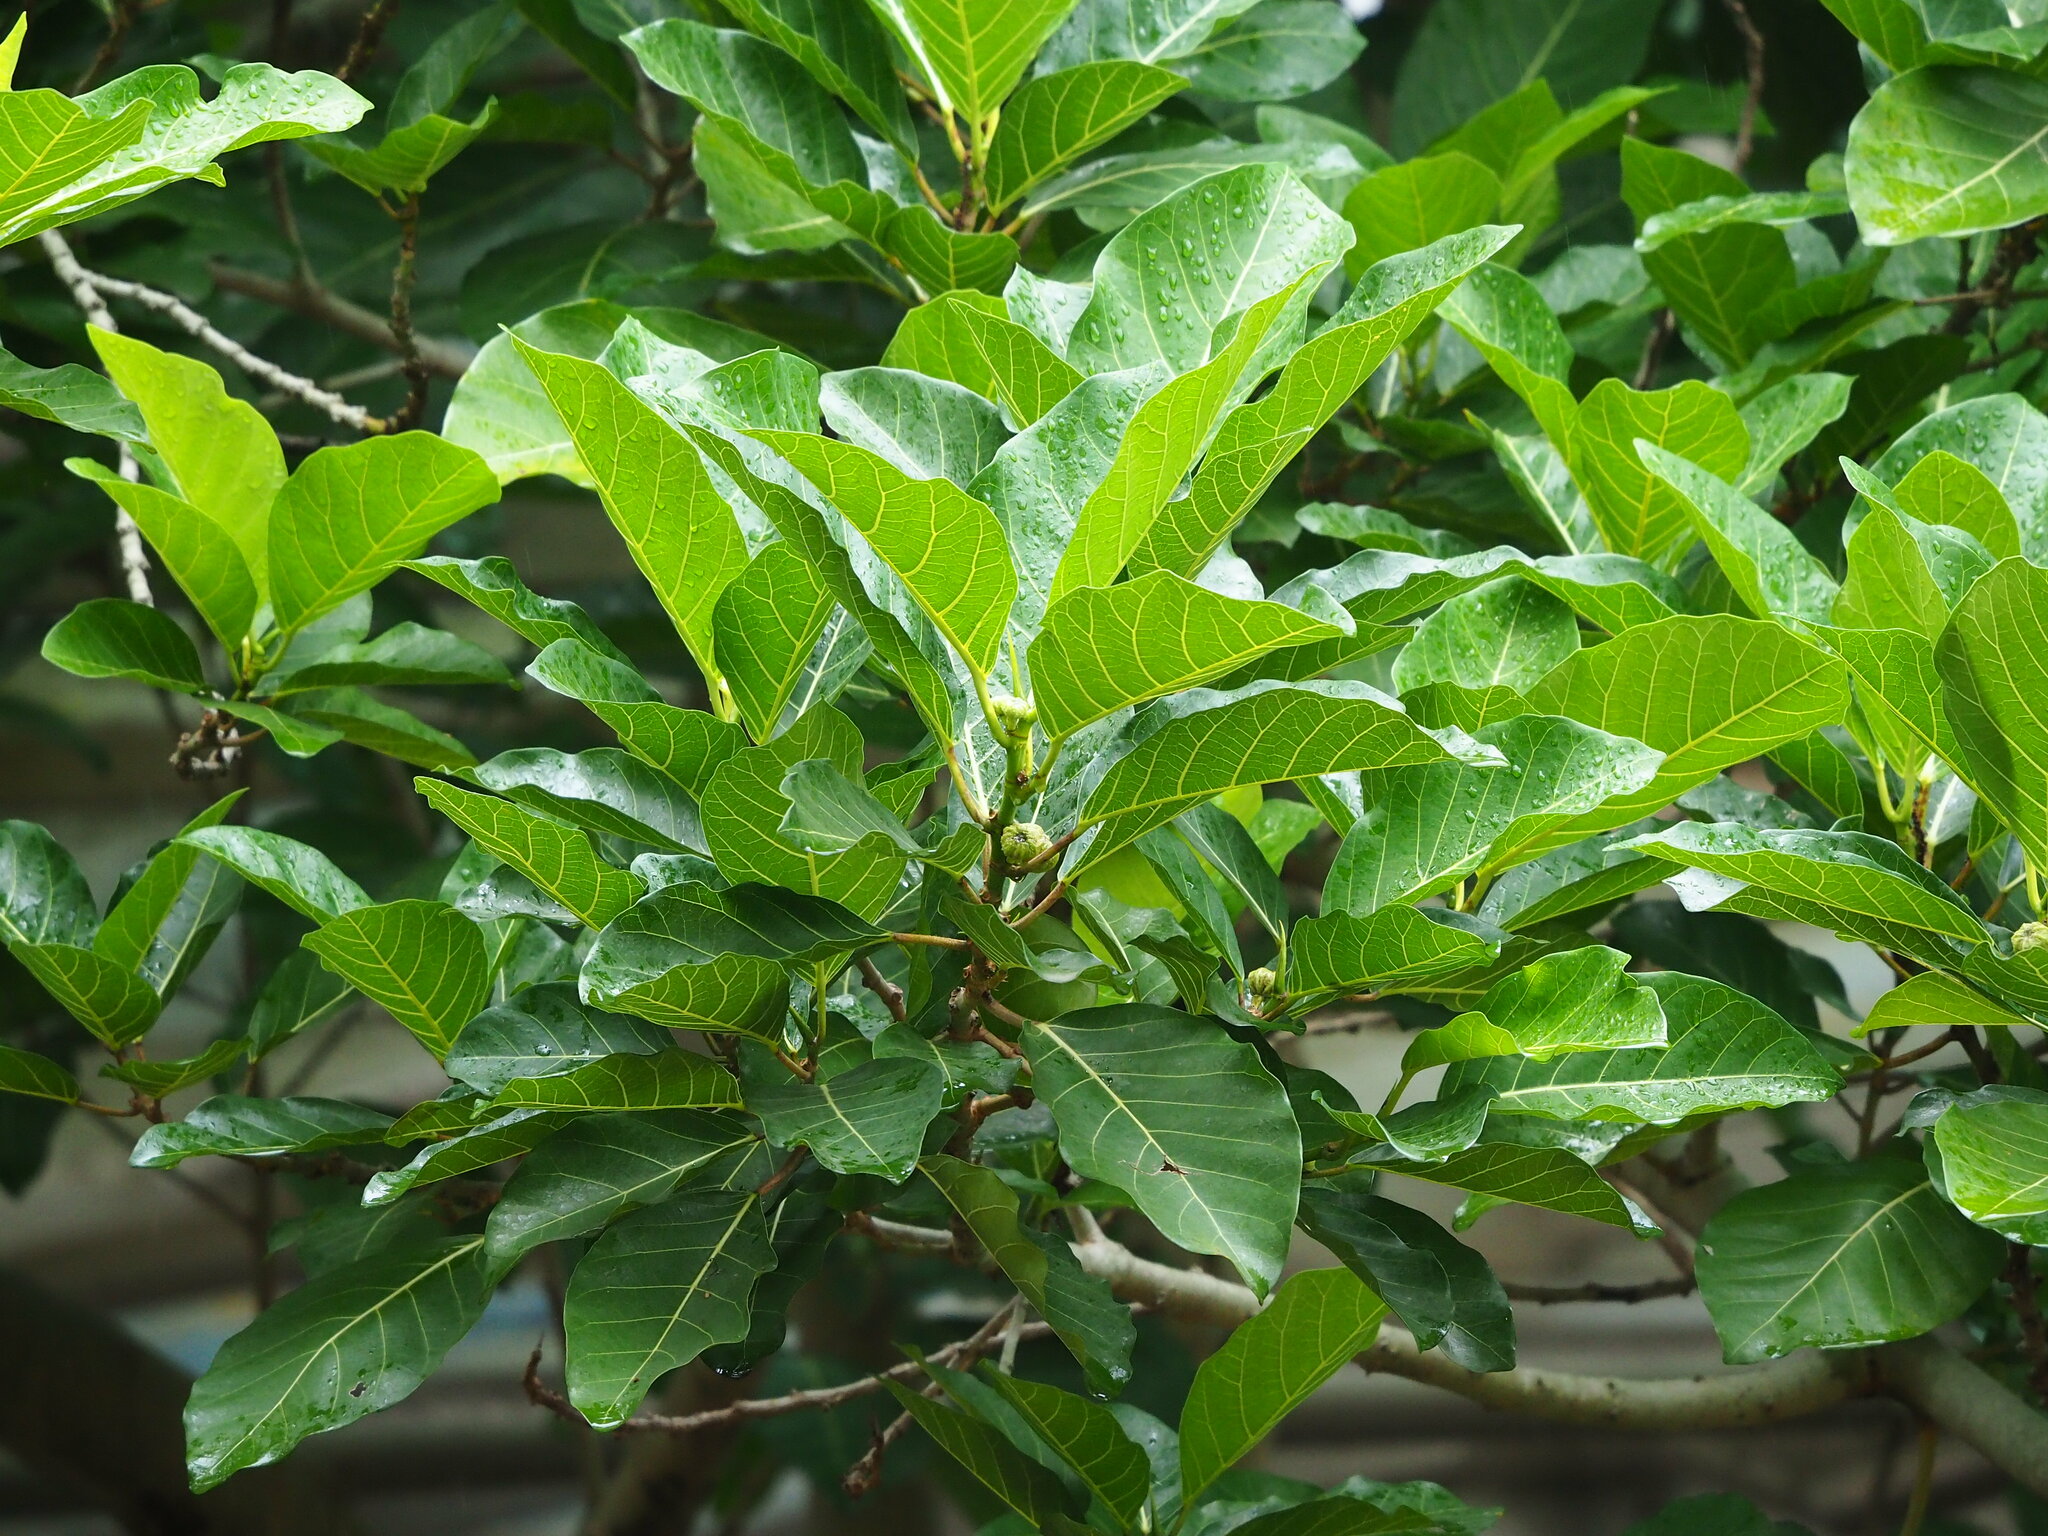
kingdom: Plantae
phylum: Tracheophyta
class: Magnoliopsida
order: Rosales
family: Moraceae
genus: Ficus
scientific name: Ficus septica
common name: Septic fig
